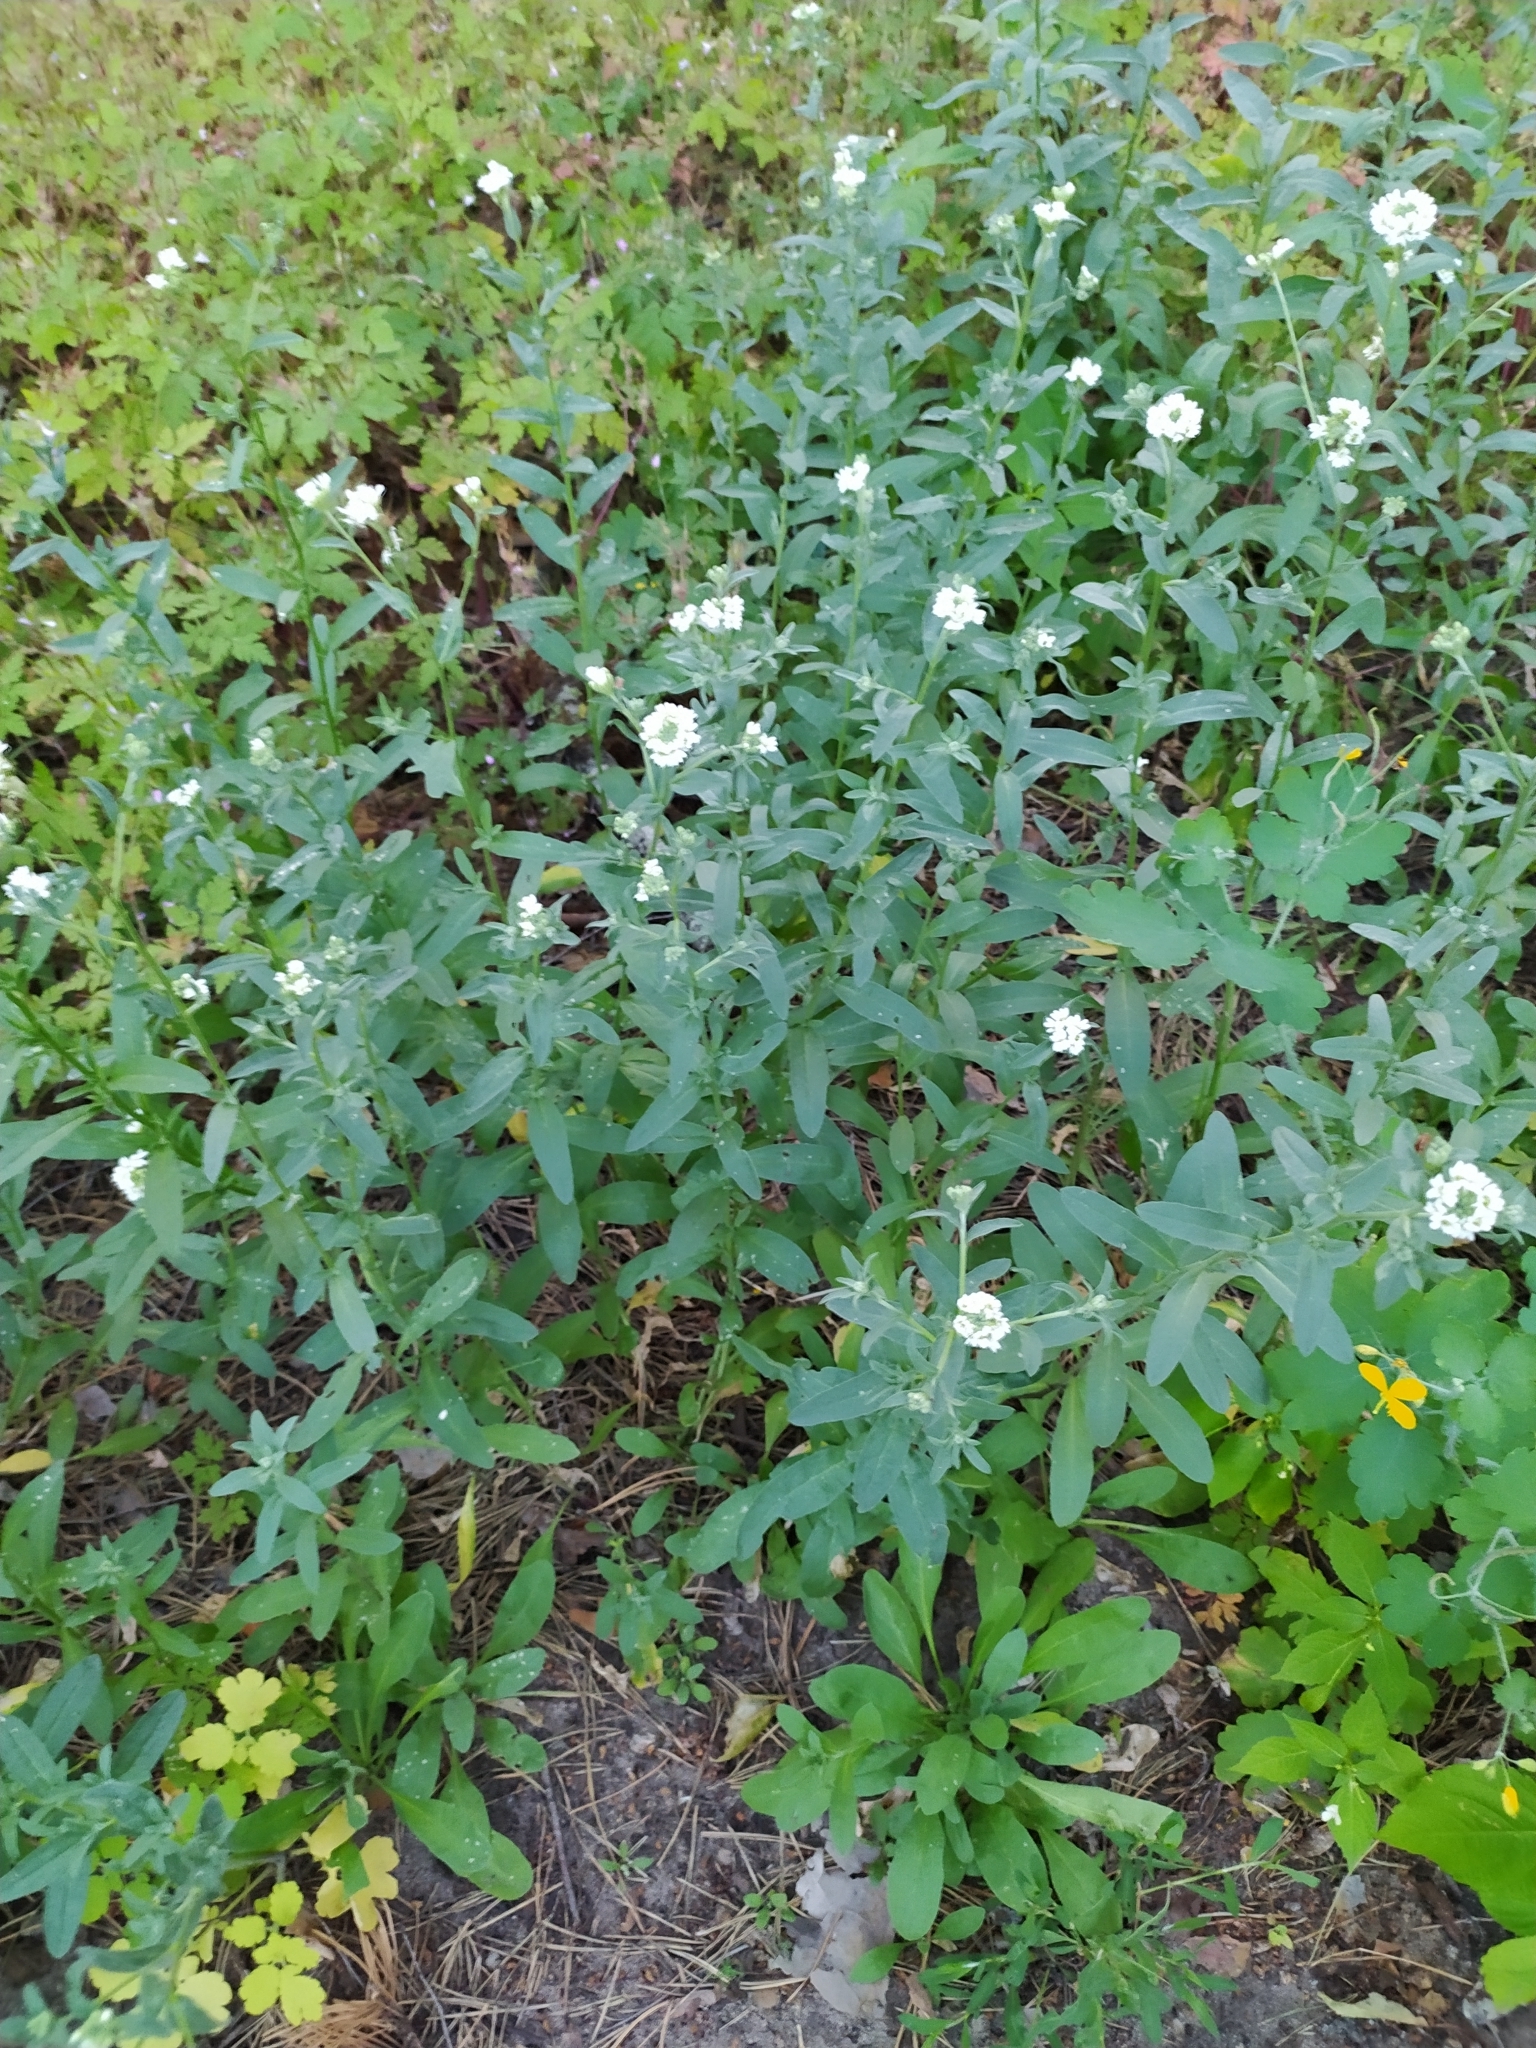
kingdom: Plantae
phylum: Tracheophyta
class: Magnoliopsida
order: Brassicales
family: Brassicaceae
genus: Berteroa
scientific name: Berteroa incana
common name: Hoary alison
